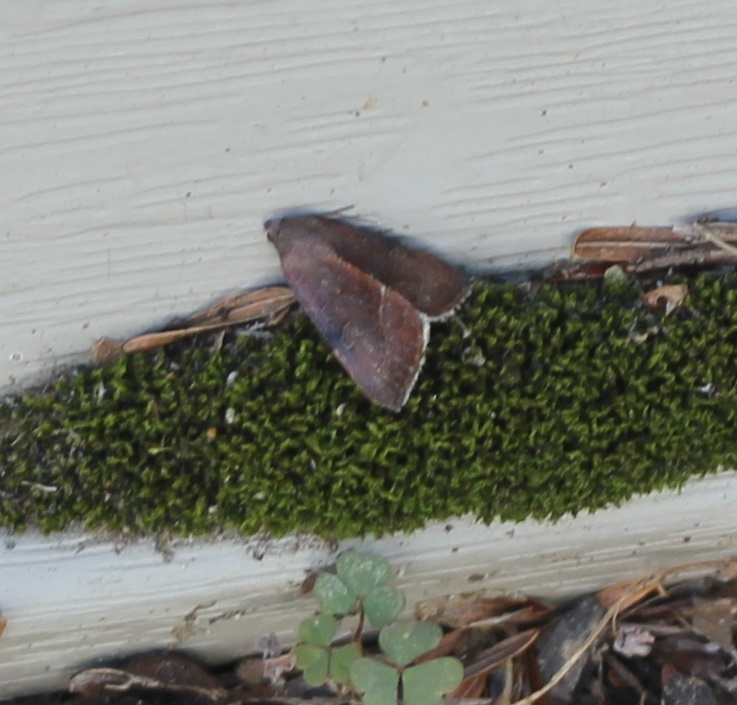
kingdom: Animalia
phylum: Arthropoda
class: Insecta
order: Lepidoptera
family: Noctuidae
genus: Galgula
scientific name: Galgula partita
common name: Wedgeling
